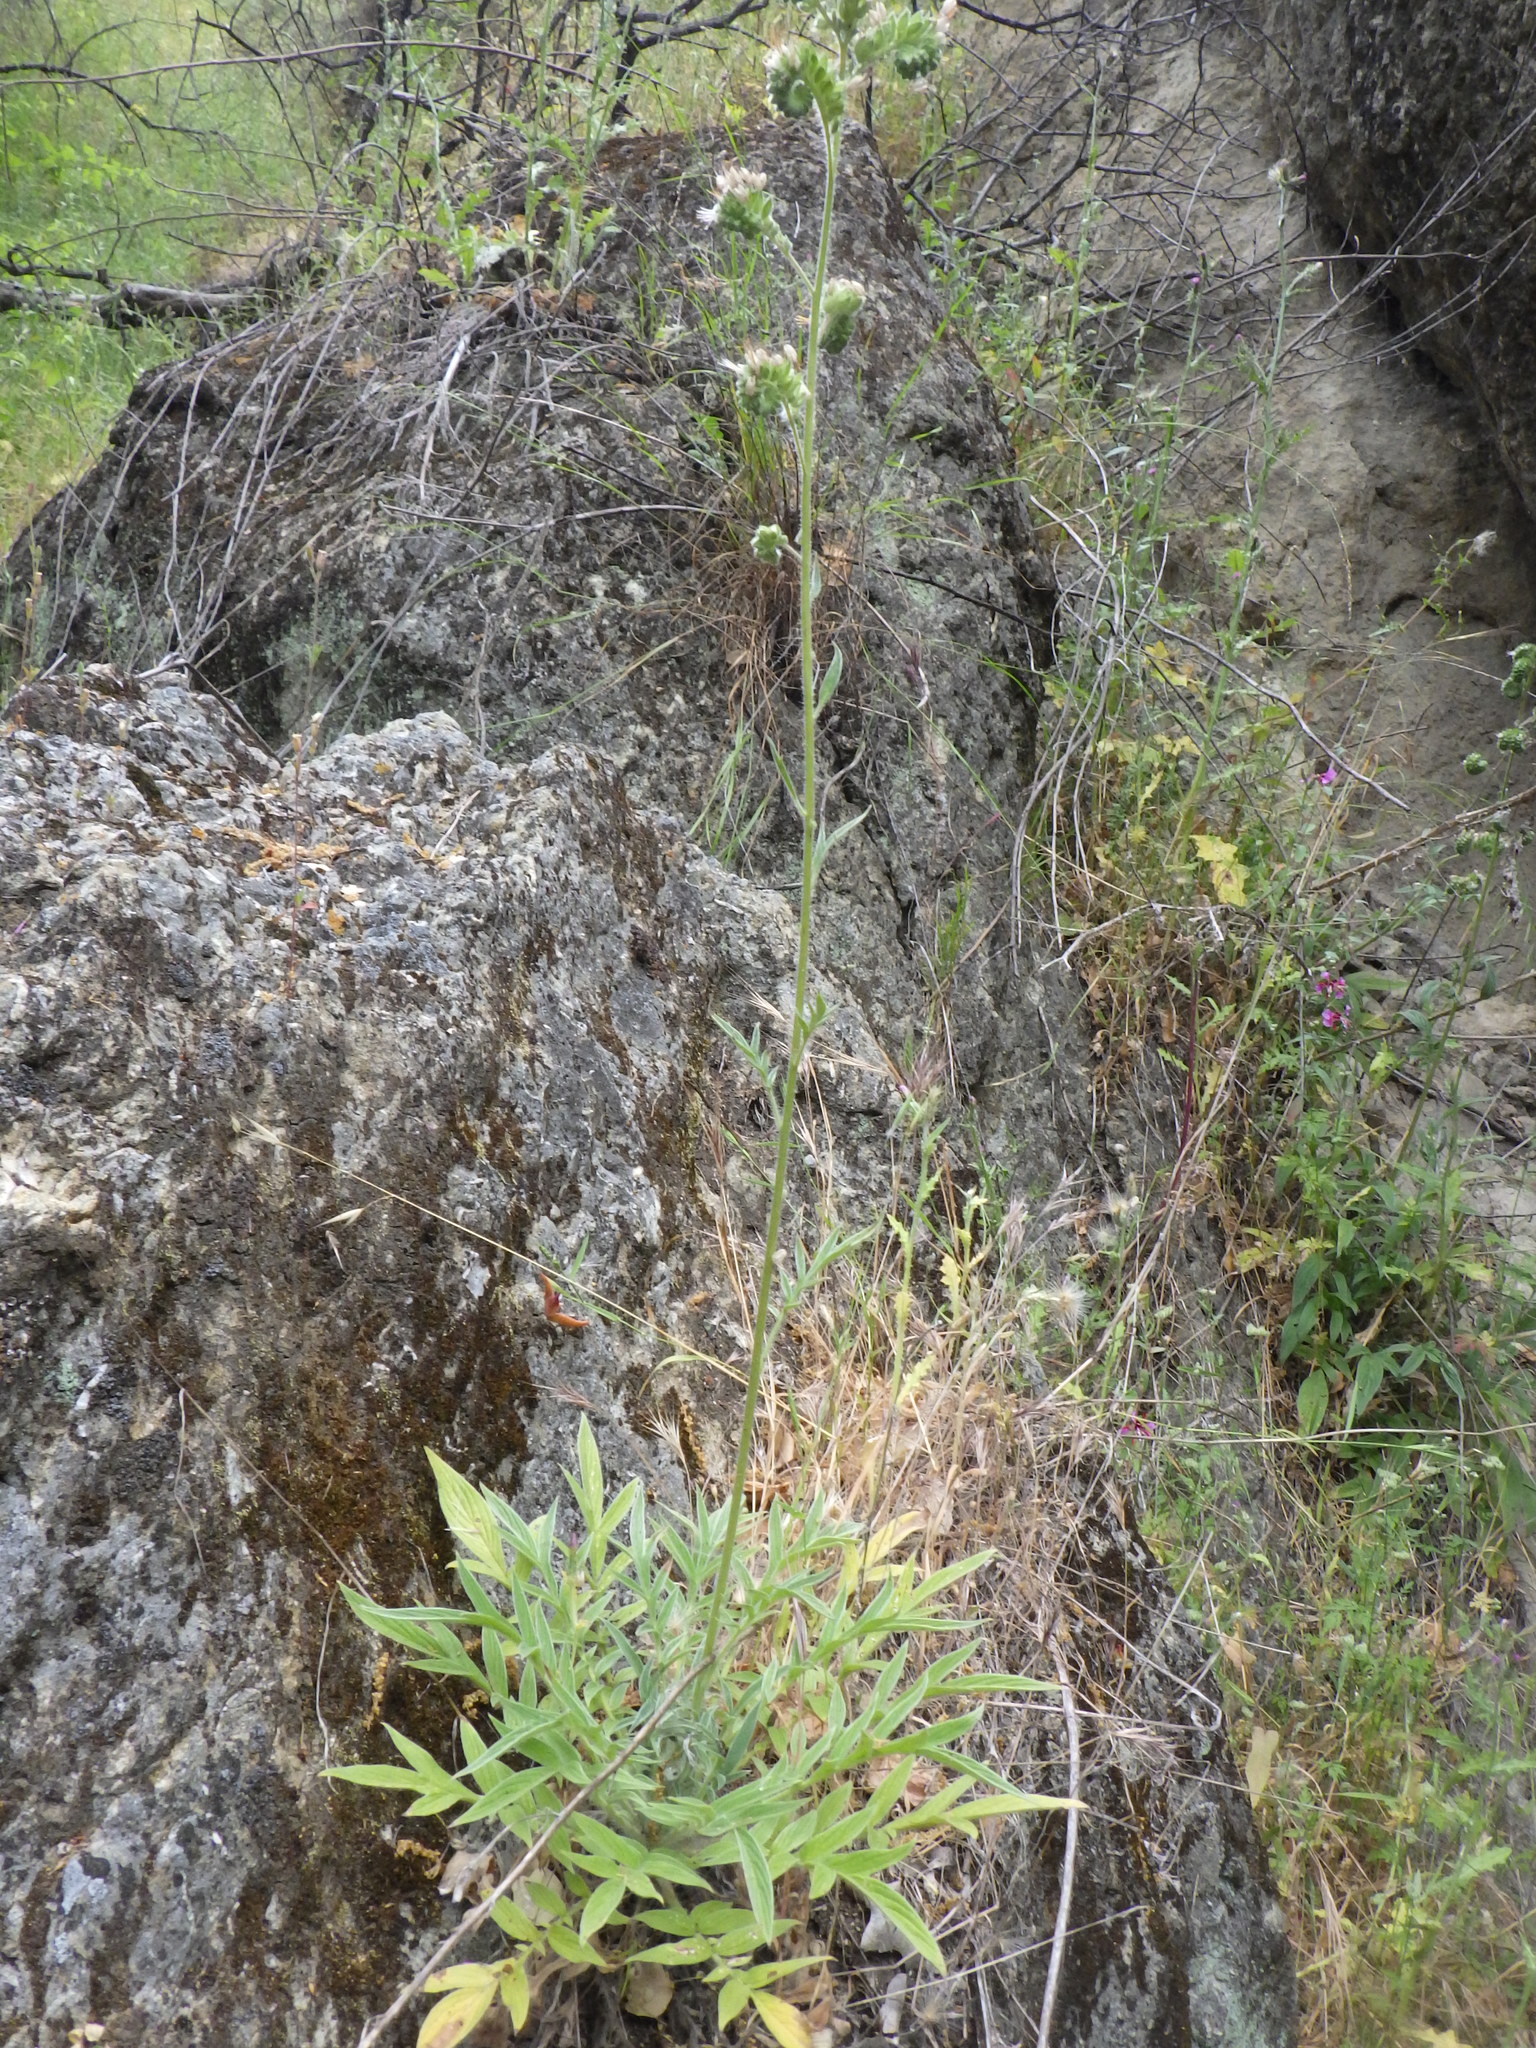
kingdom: Plantae
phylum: Tracheophyta
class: Magnoliopsida
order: Boraginales
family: Hydrophyllaceae
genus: Phacelia
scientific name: Phacelia imbricata
